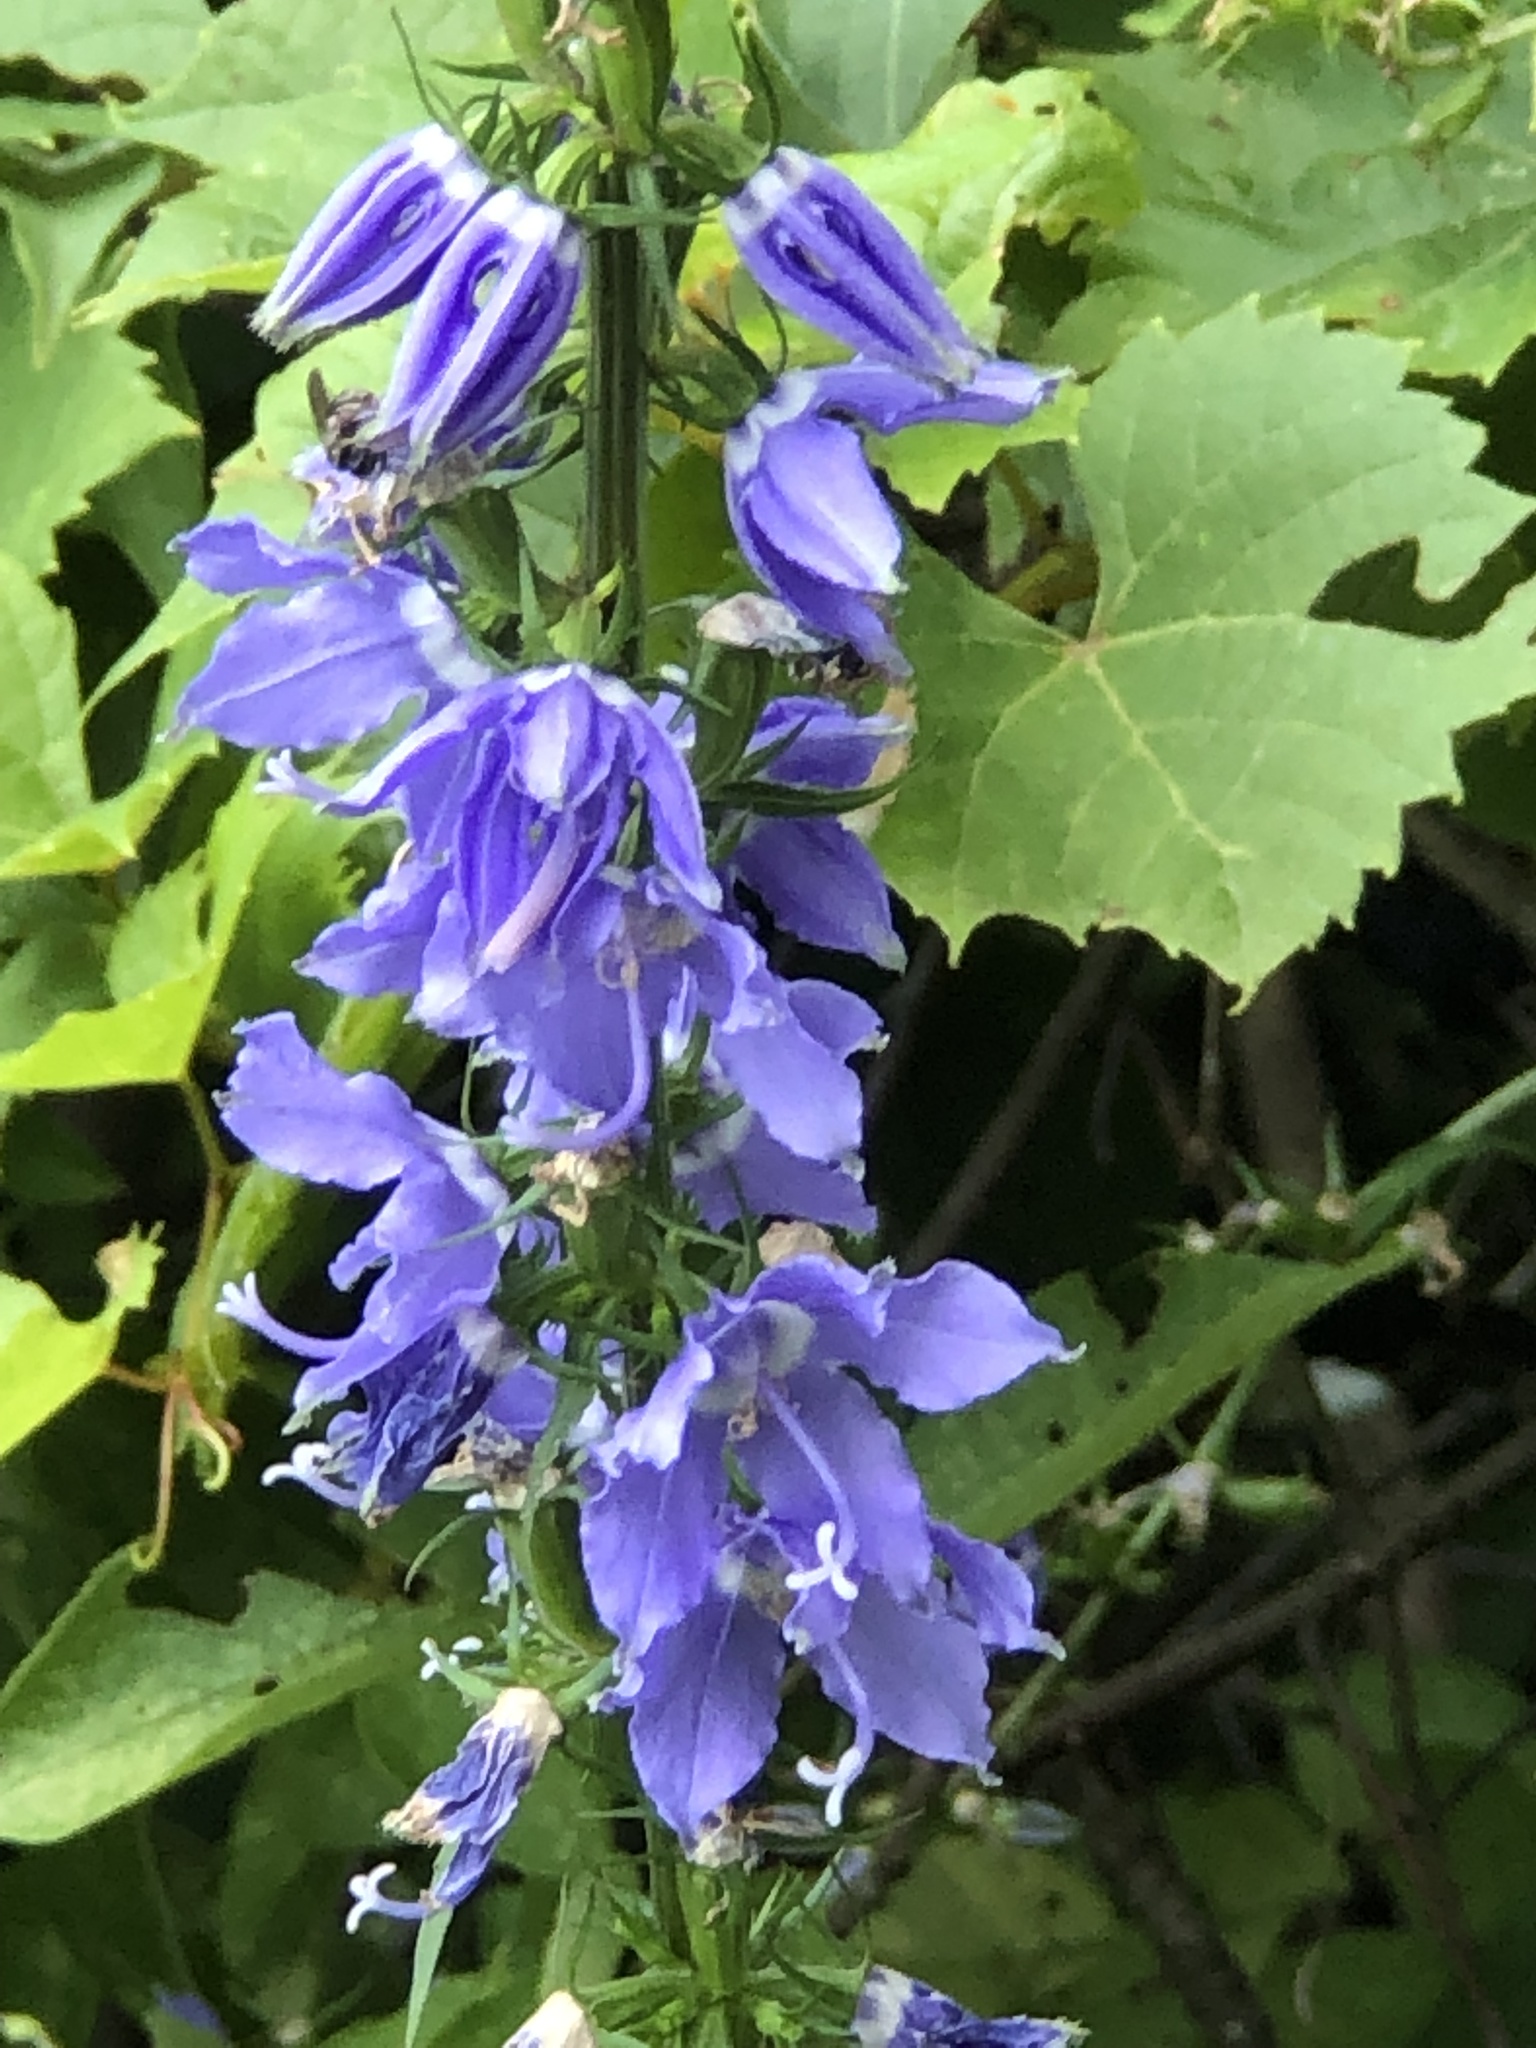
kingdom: Plantae
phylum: Tracheophyta
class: Magnoliopsida
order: Asterales
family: Campanulaceae
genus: Campanulastrum
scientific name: Campanulastrum americanum
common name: American bellflower
